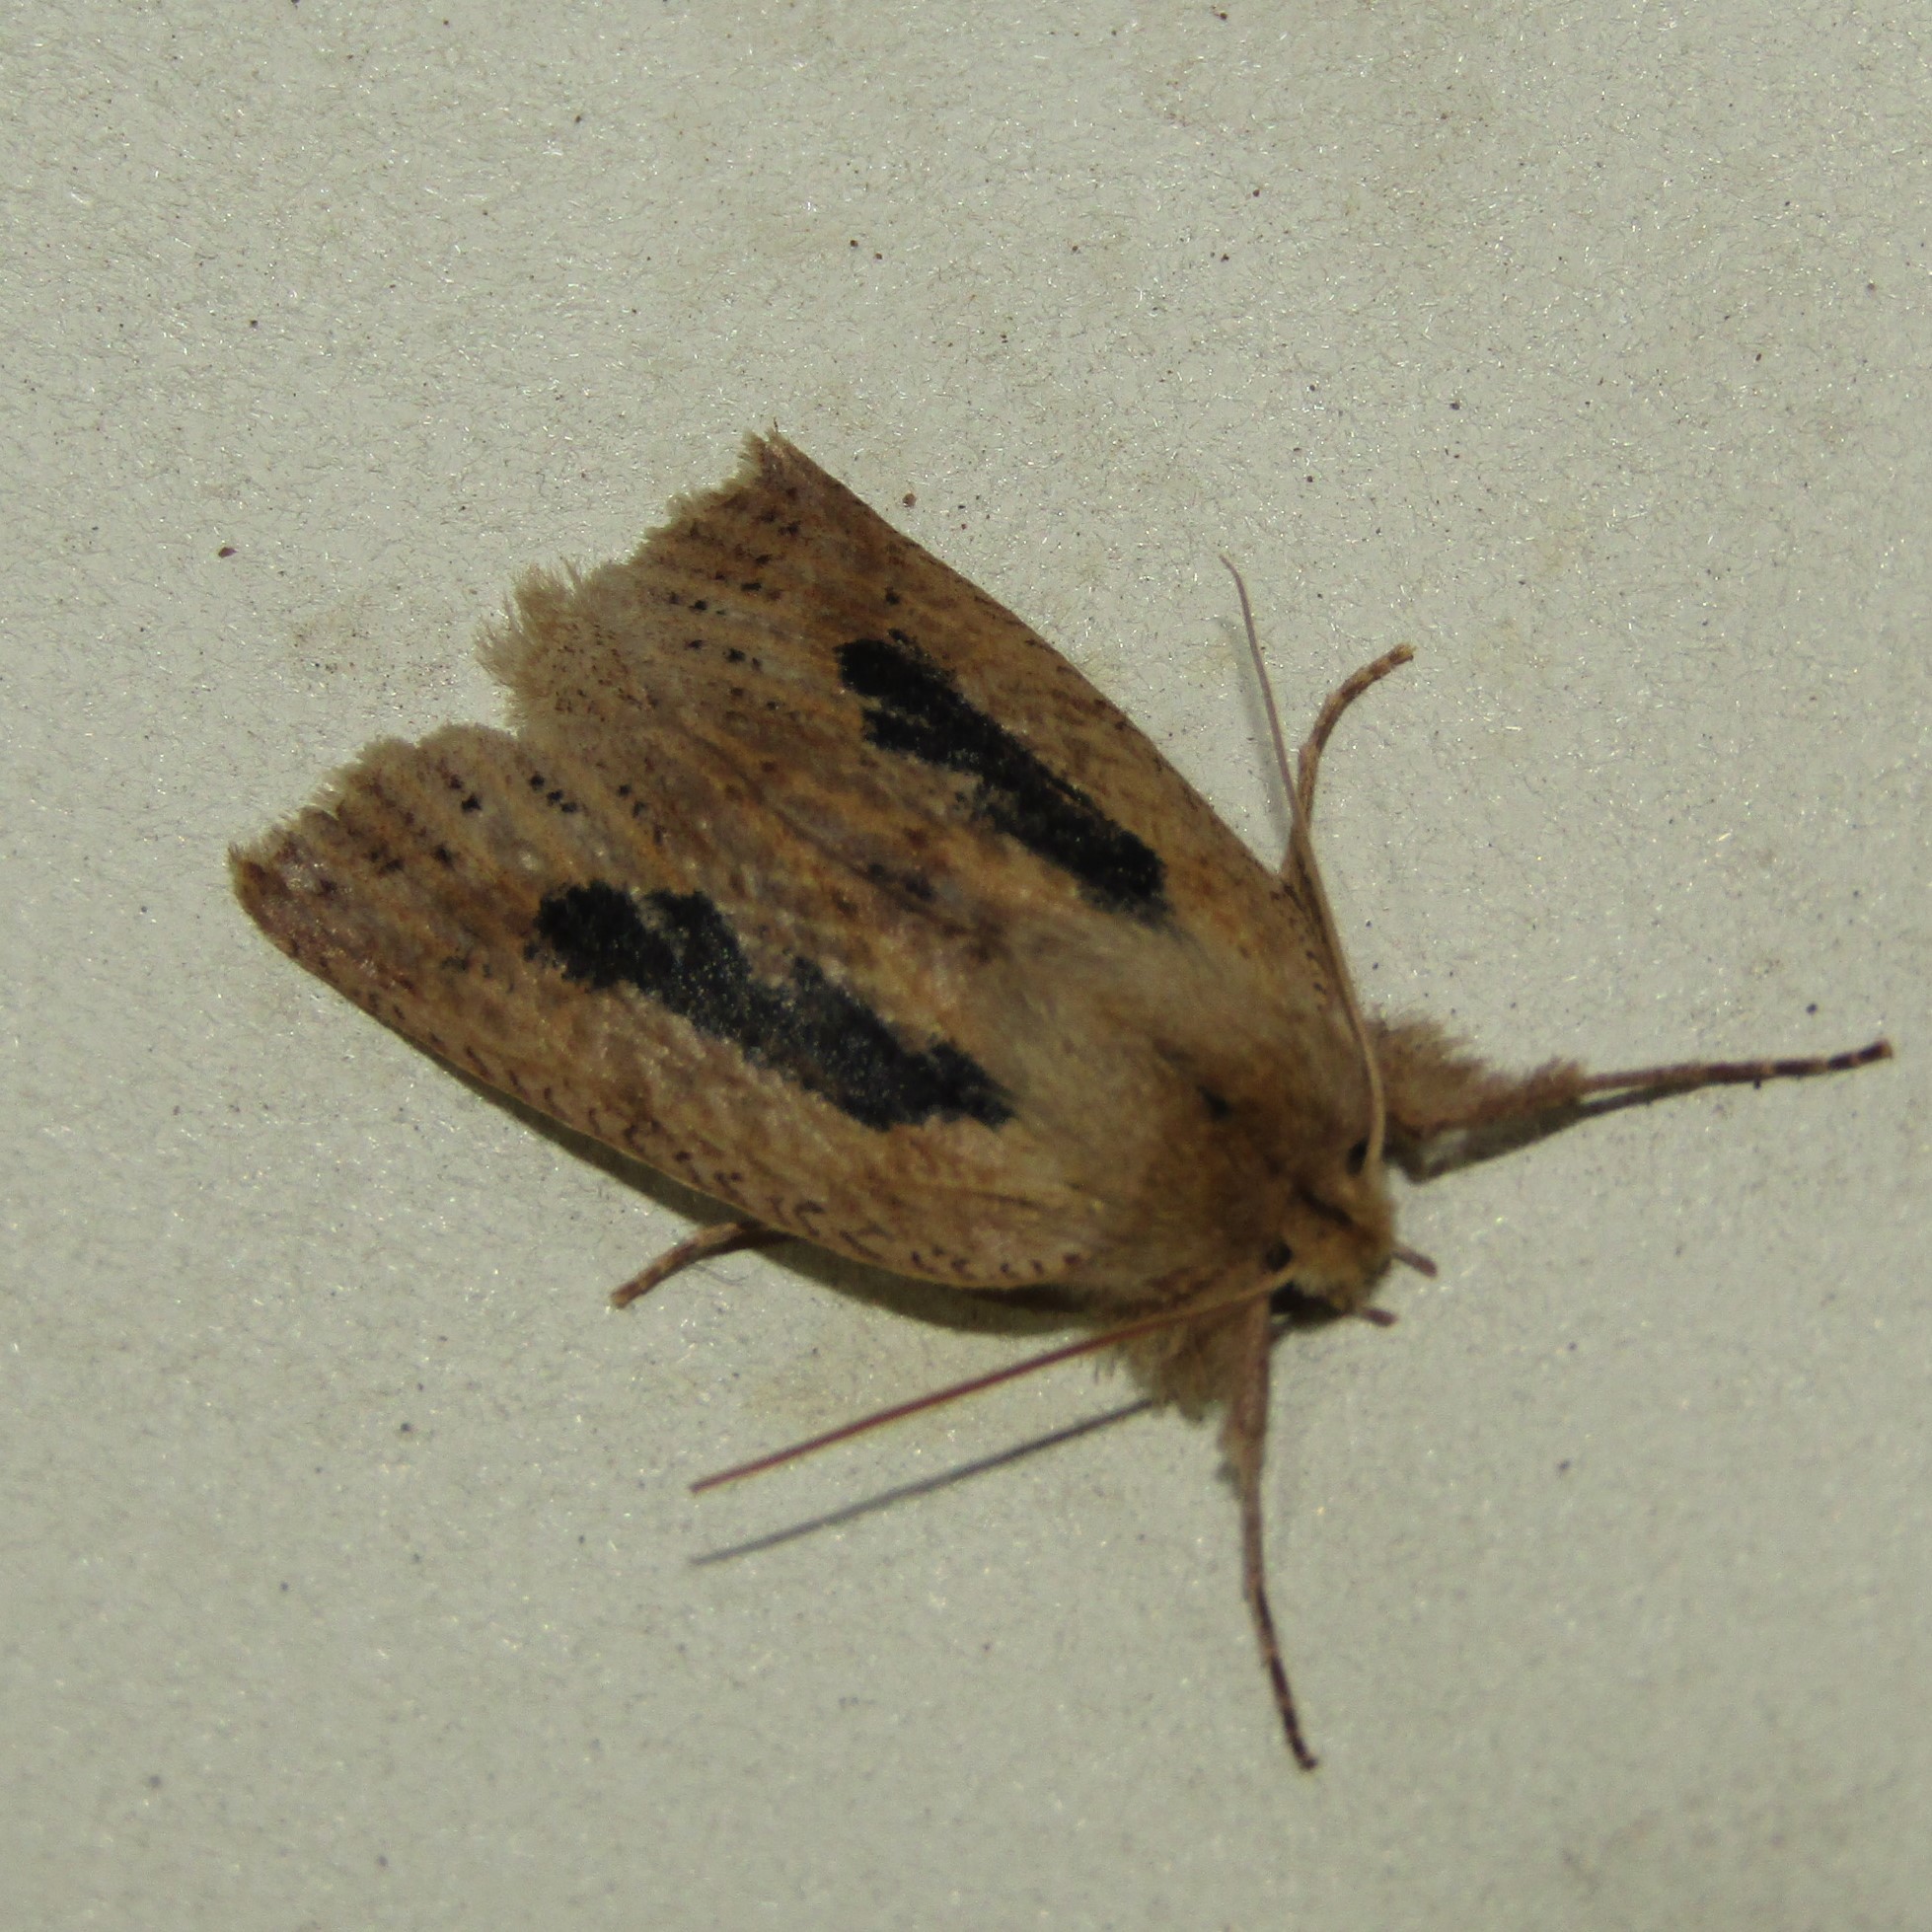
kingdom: Animalia
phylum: Arthropoda
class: Insecta
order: Lepidoptera
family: Geometridae
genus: Declana
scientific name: Declana leptomera
